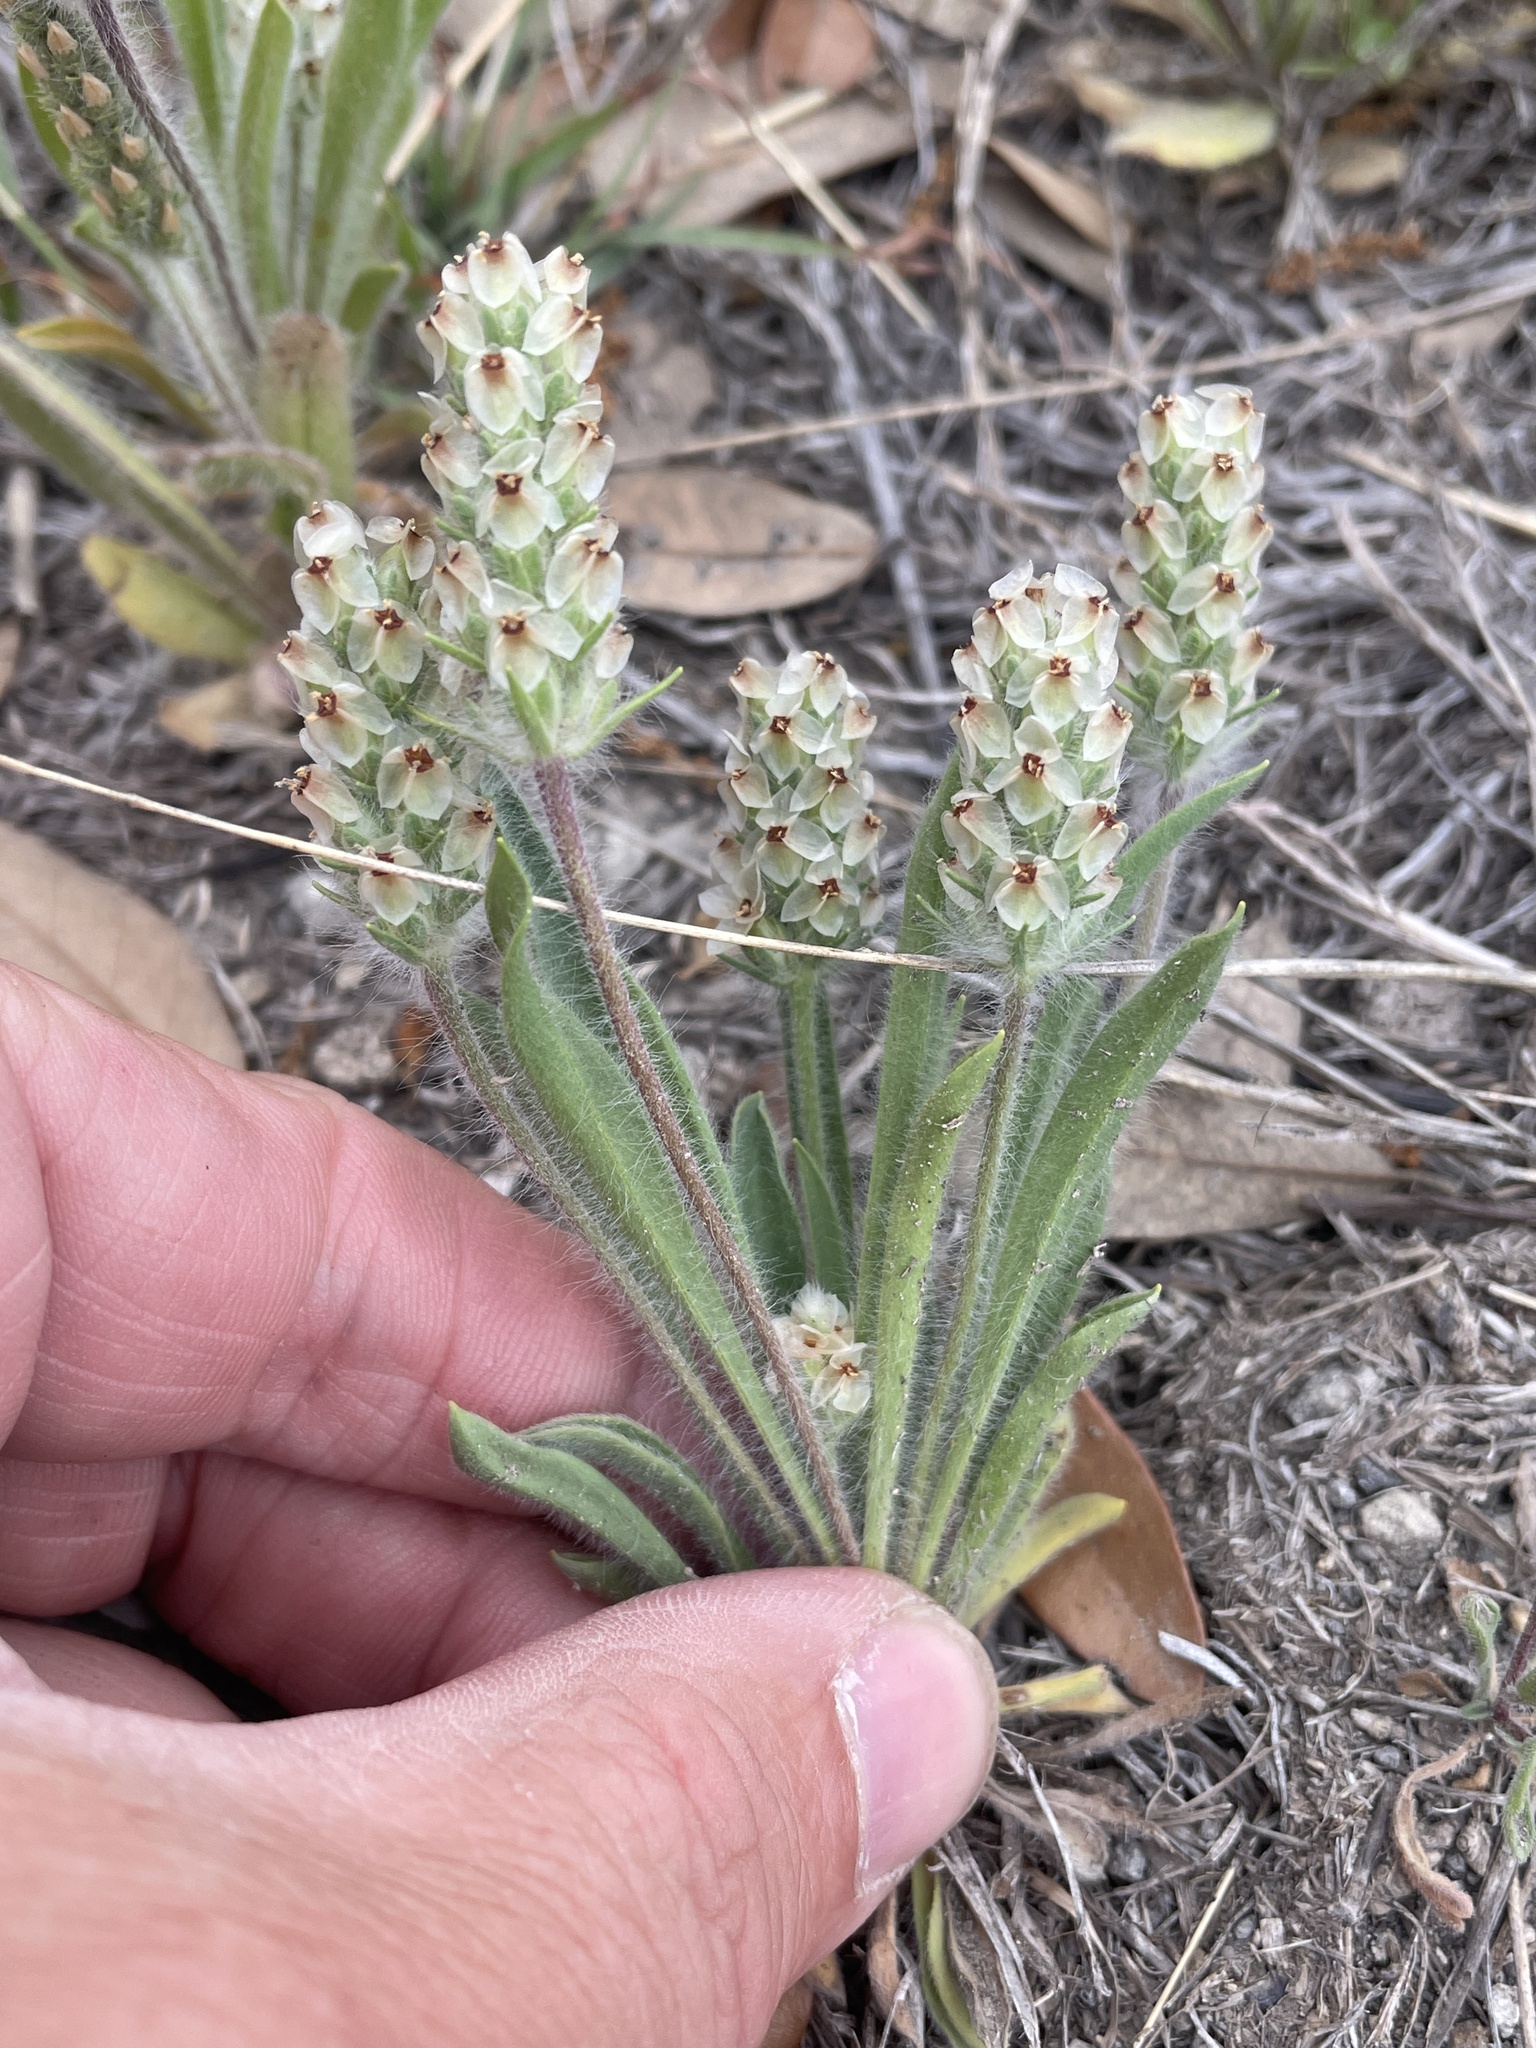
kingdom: Plantae
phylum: Tracheophyta
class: Magnoliopsida
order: Lamiales
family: Plantaginaceae
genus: Plantago
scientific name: Plantago helleri
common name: Heller's plantain
